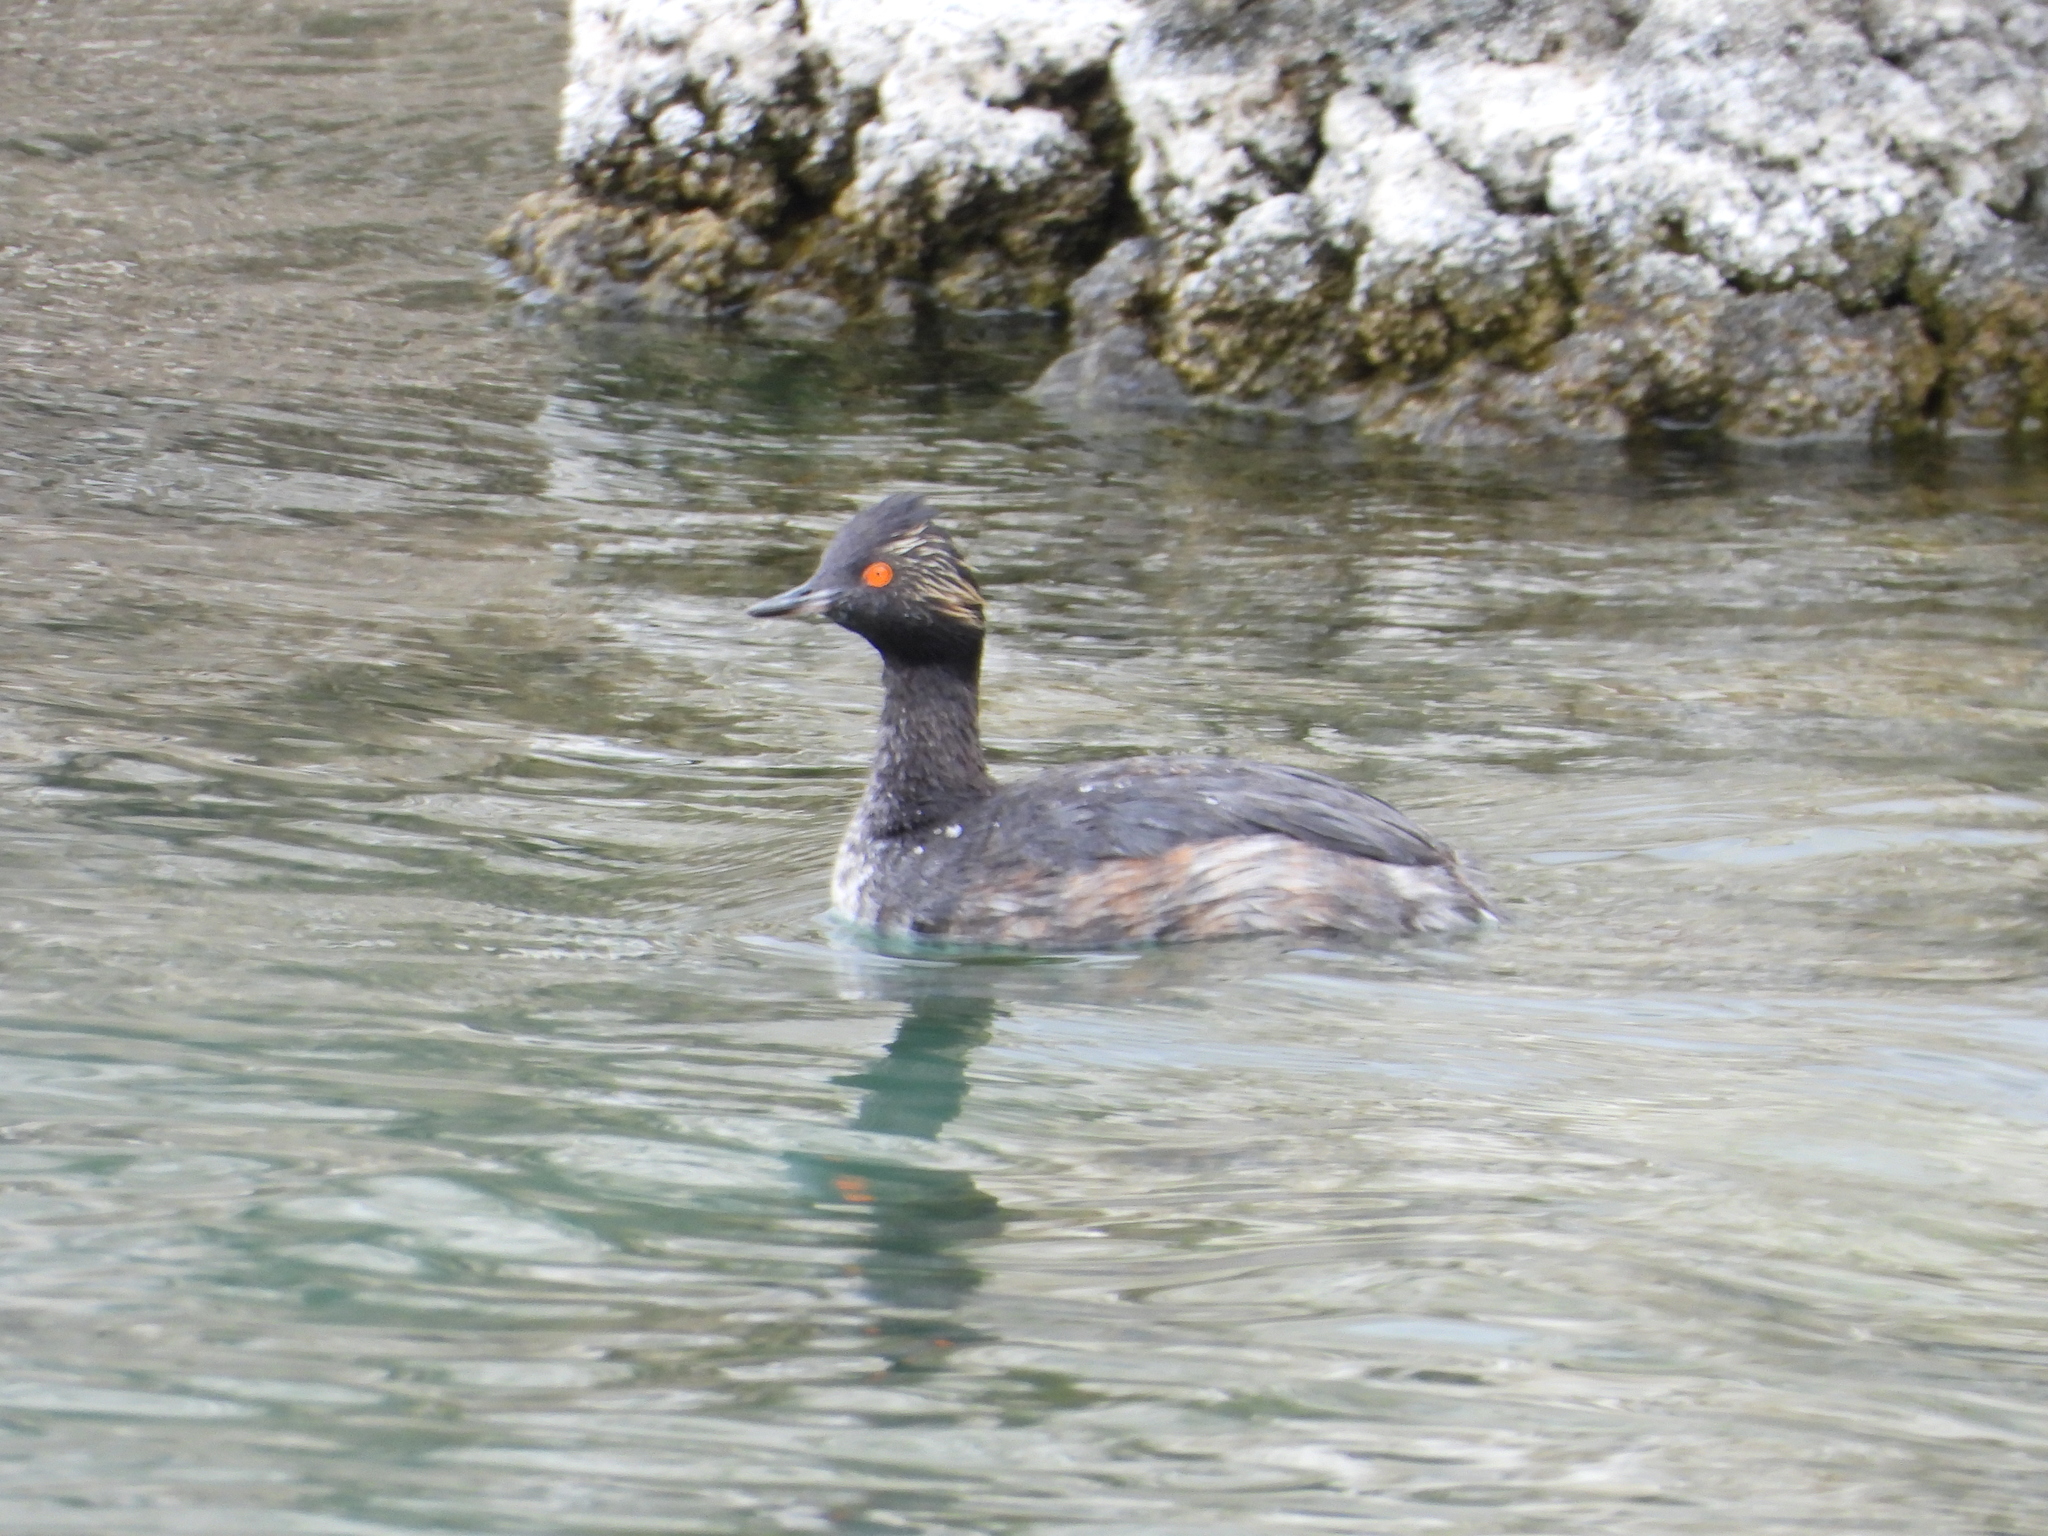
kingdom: Animalia
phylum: Chordata
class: Aves
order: Podicipediformes
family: Podicipedidae
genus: Podiceps
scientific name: Podiceps nigricollis
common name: Black-necked grebe
